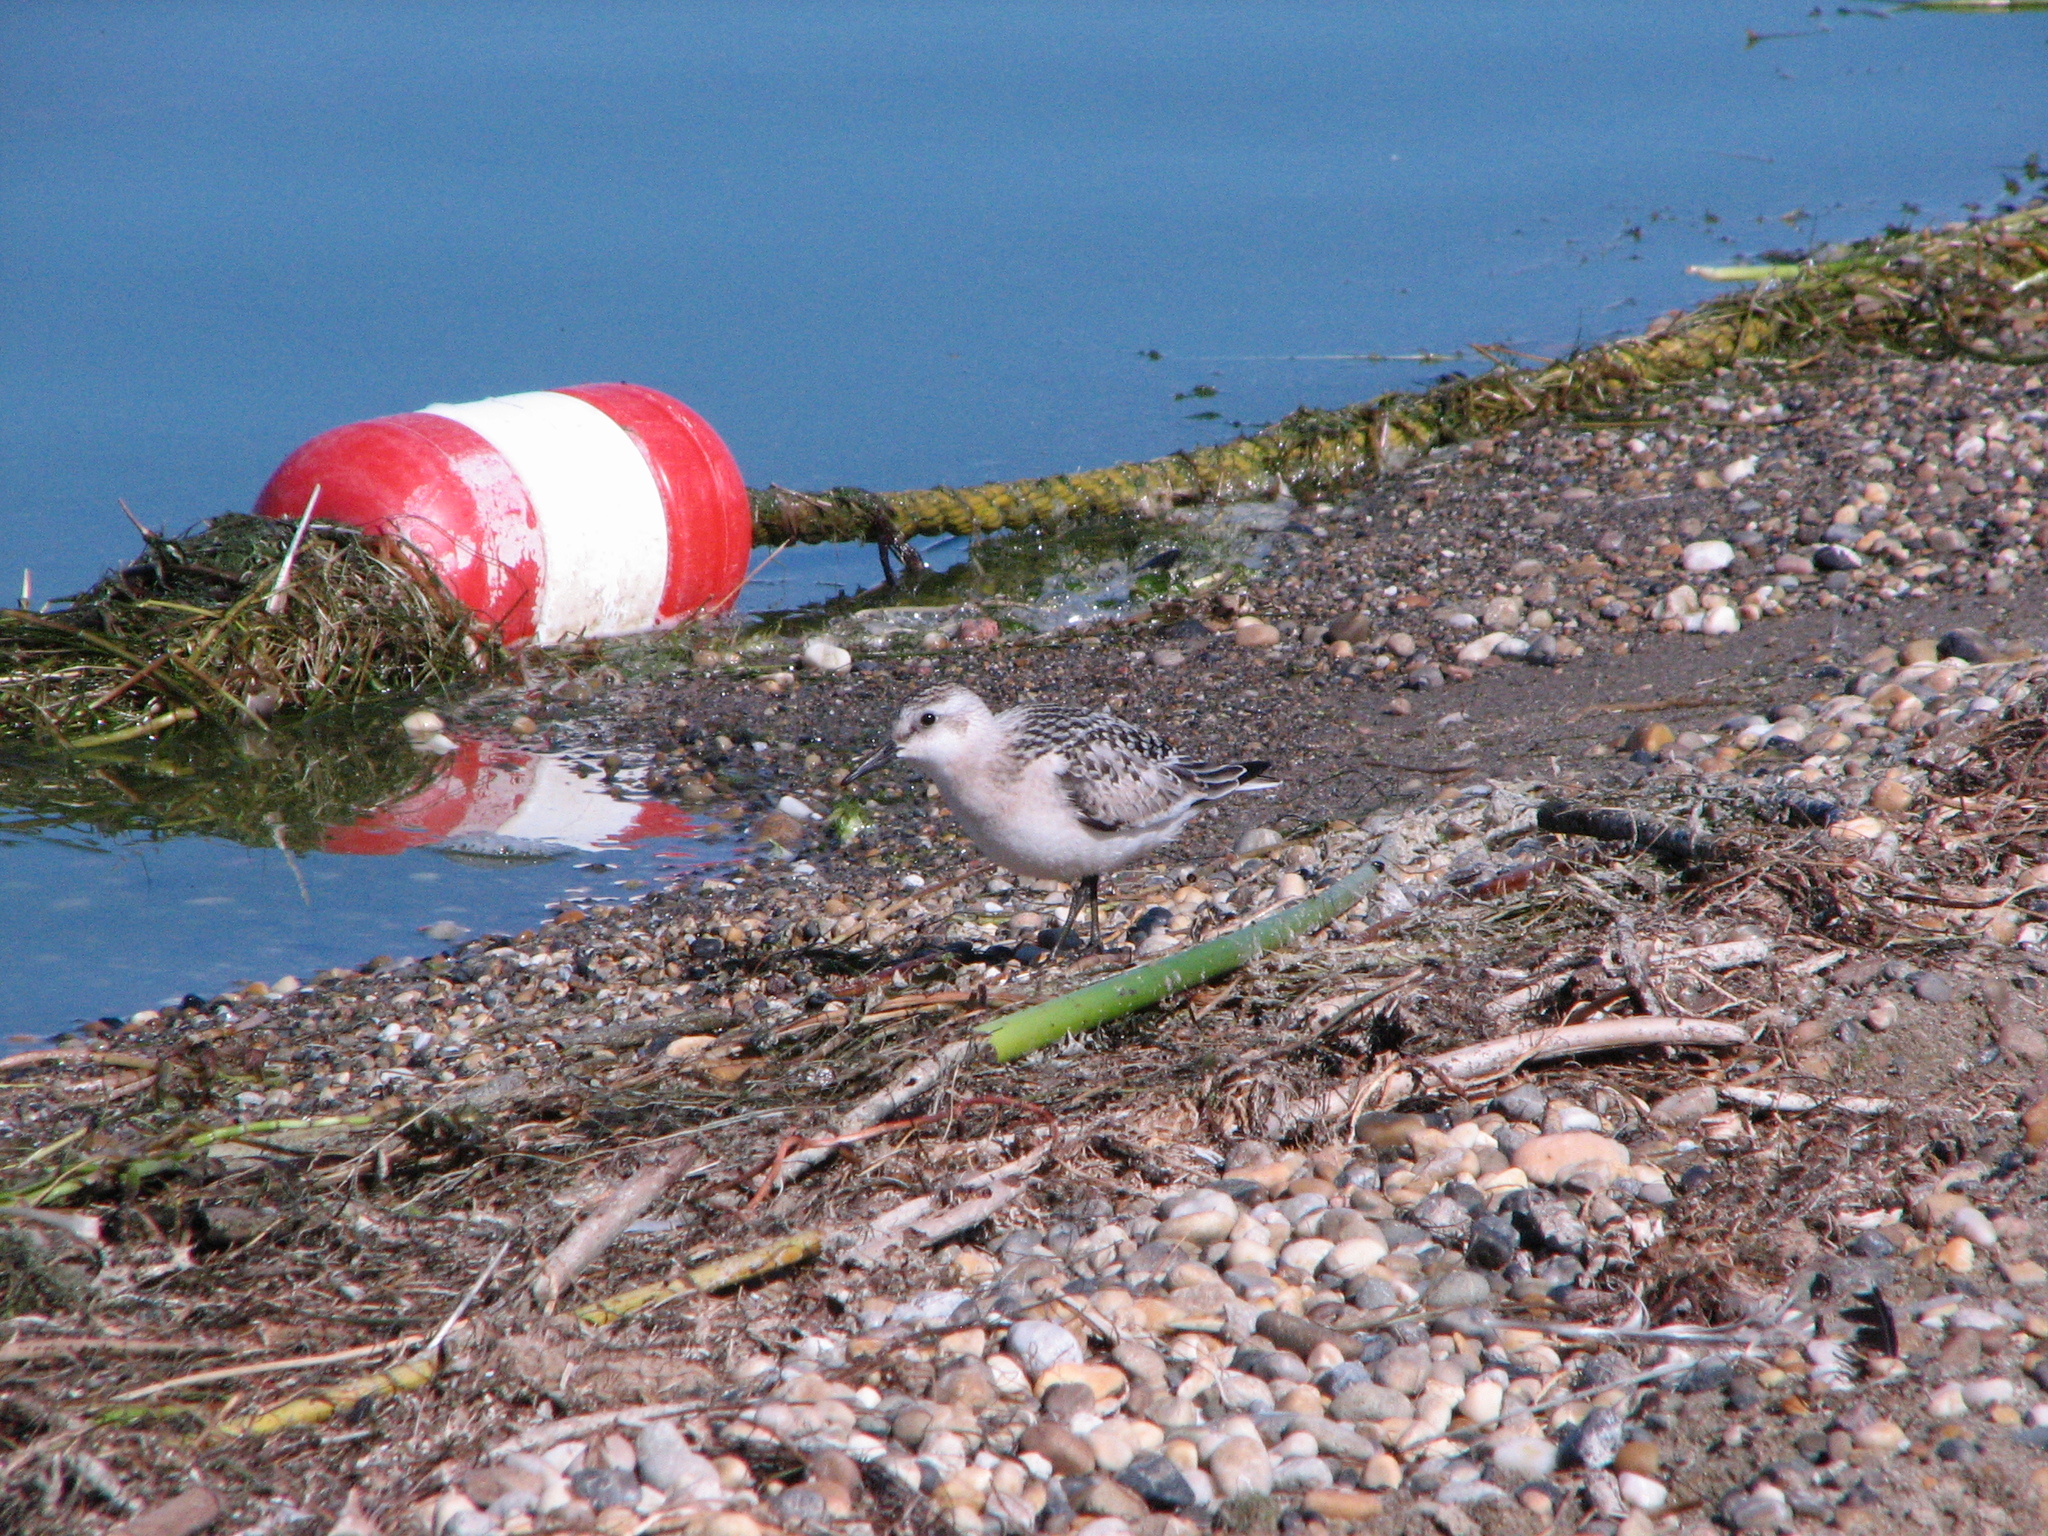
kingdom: Animalia
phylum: Chordata
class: Aves
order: Charadriiformes
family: Scolopacidae
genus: Calidris
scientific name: Calidris alba
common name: Sanderling
